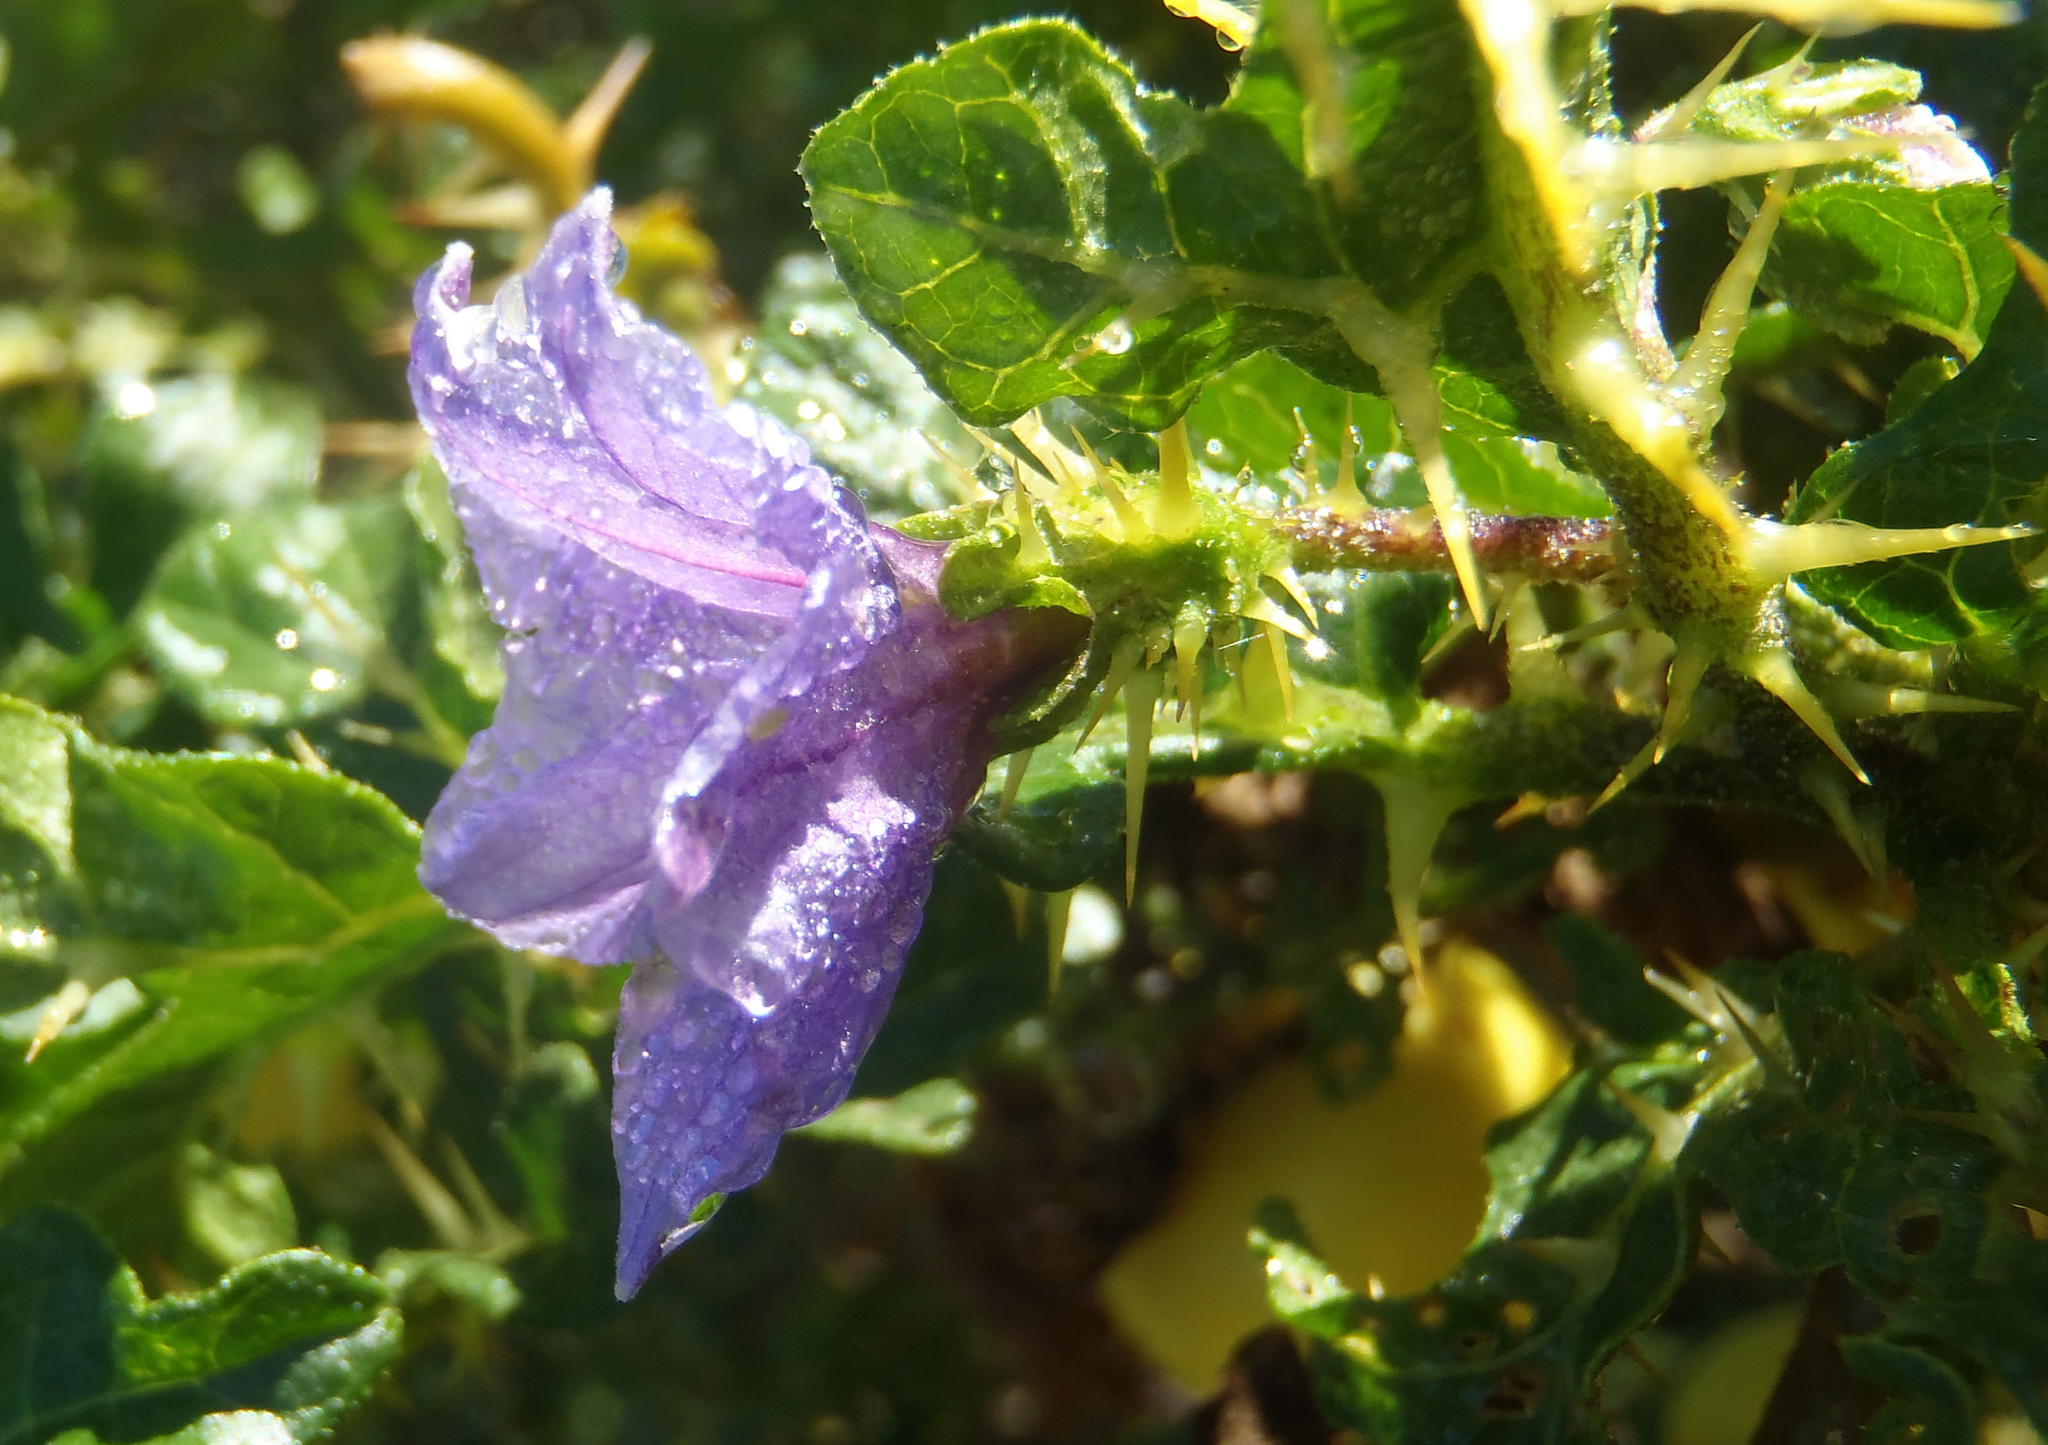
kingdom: Plantae
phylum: Tracheophyta
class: Magnoliopsida
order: Solanales
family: Solanaceae
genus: Solanum
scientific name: Solanum linnaeanum
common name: Nightshade
